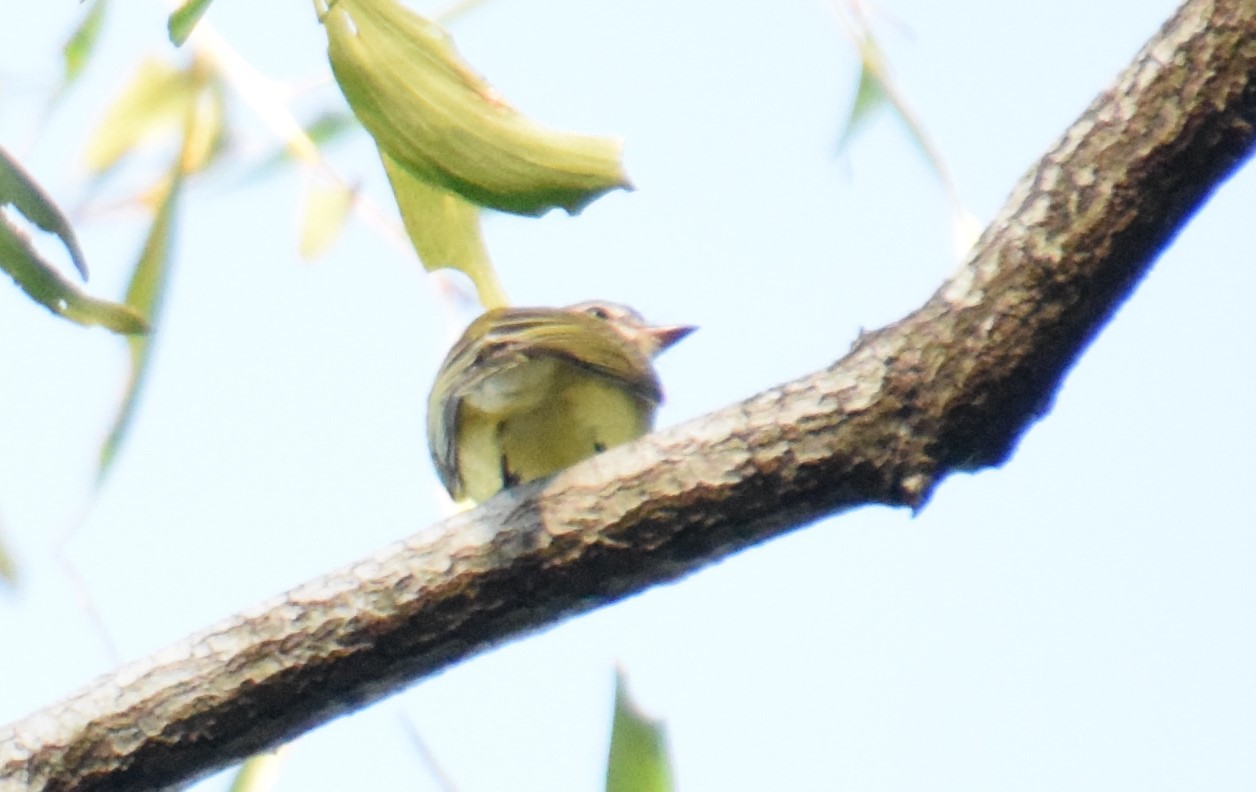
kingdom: Animalia
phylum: Chordata
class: Aves
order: Passeriformes
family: Petroicidae
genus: Microeca
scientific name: Microeca flavigaster
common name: Lemon-bellied flyrobin
